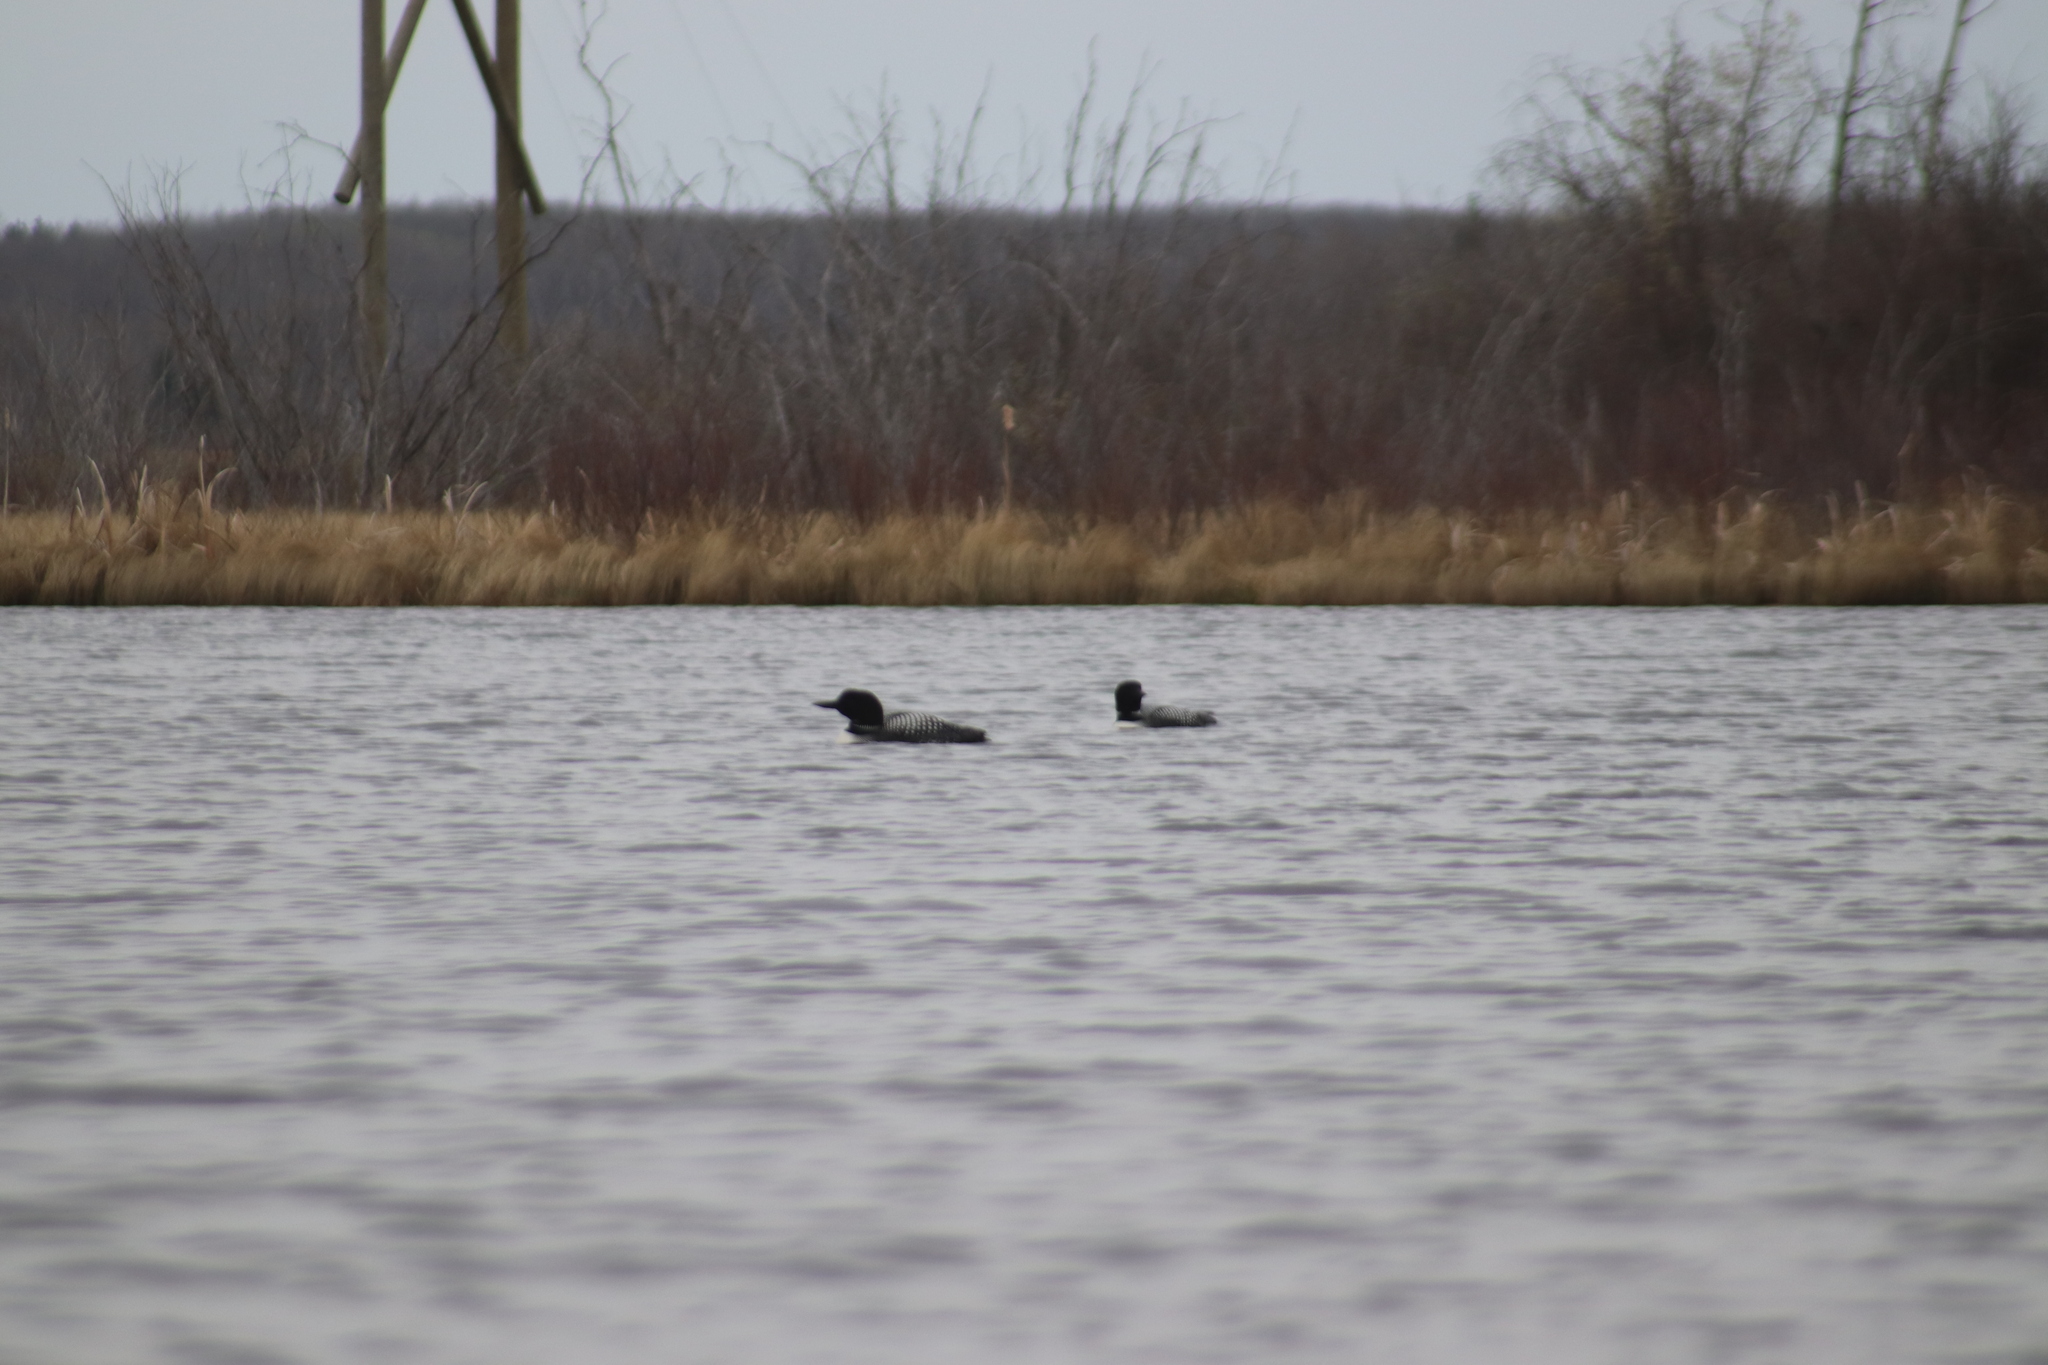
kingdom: Animalia
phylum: Chordata
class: Aves
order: Gaviiformes
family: Gaviidae
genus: Gavia
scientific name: Gavia immer
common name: Common loon
